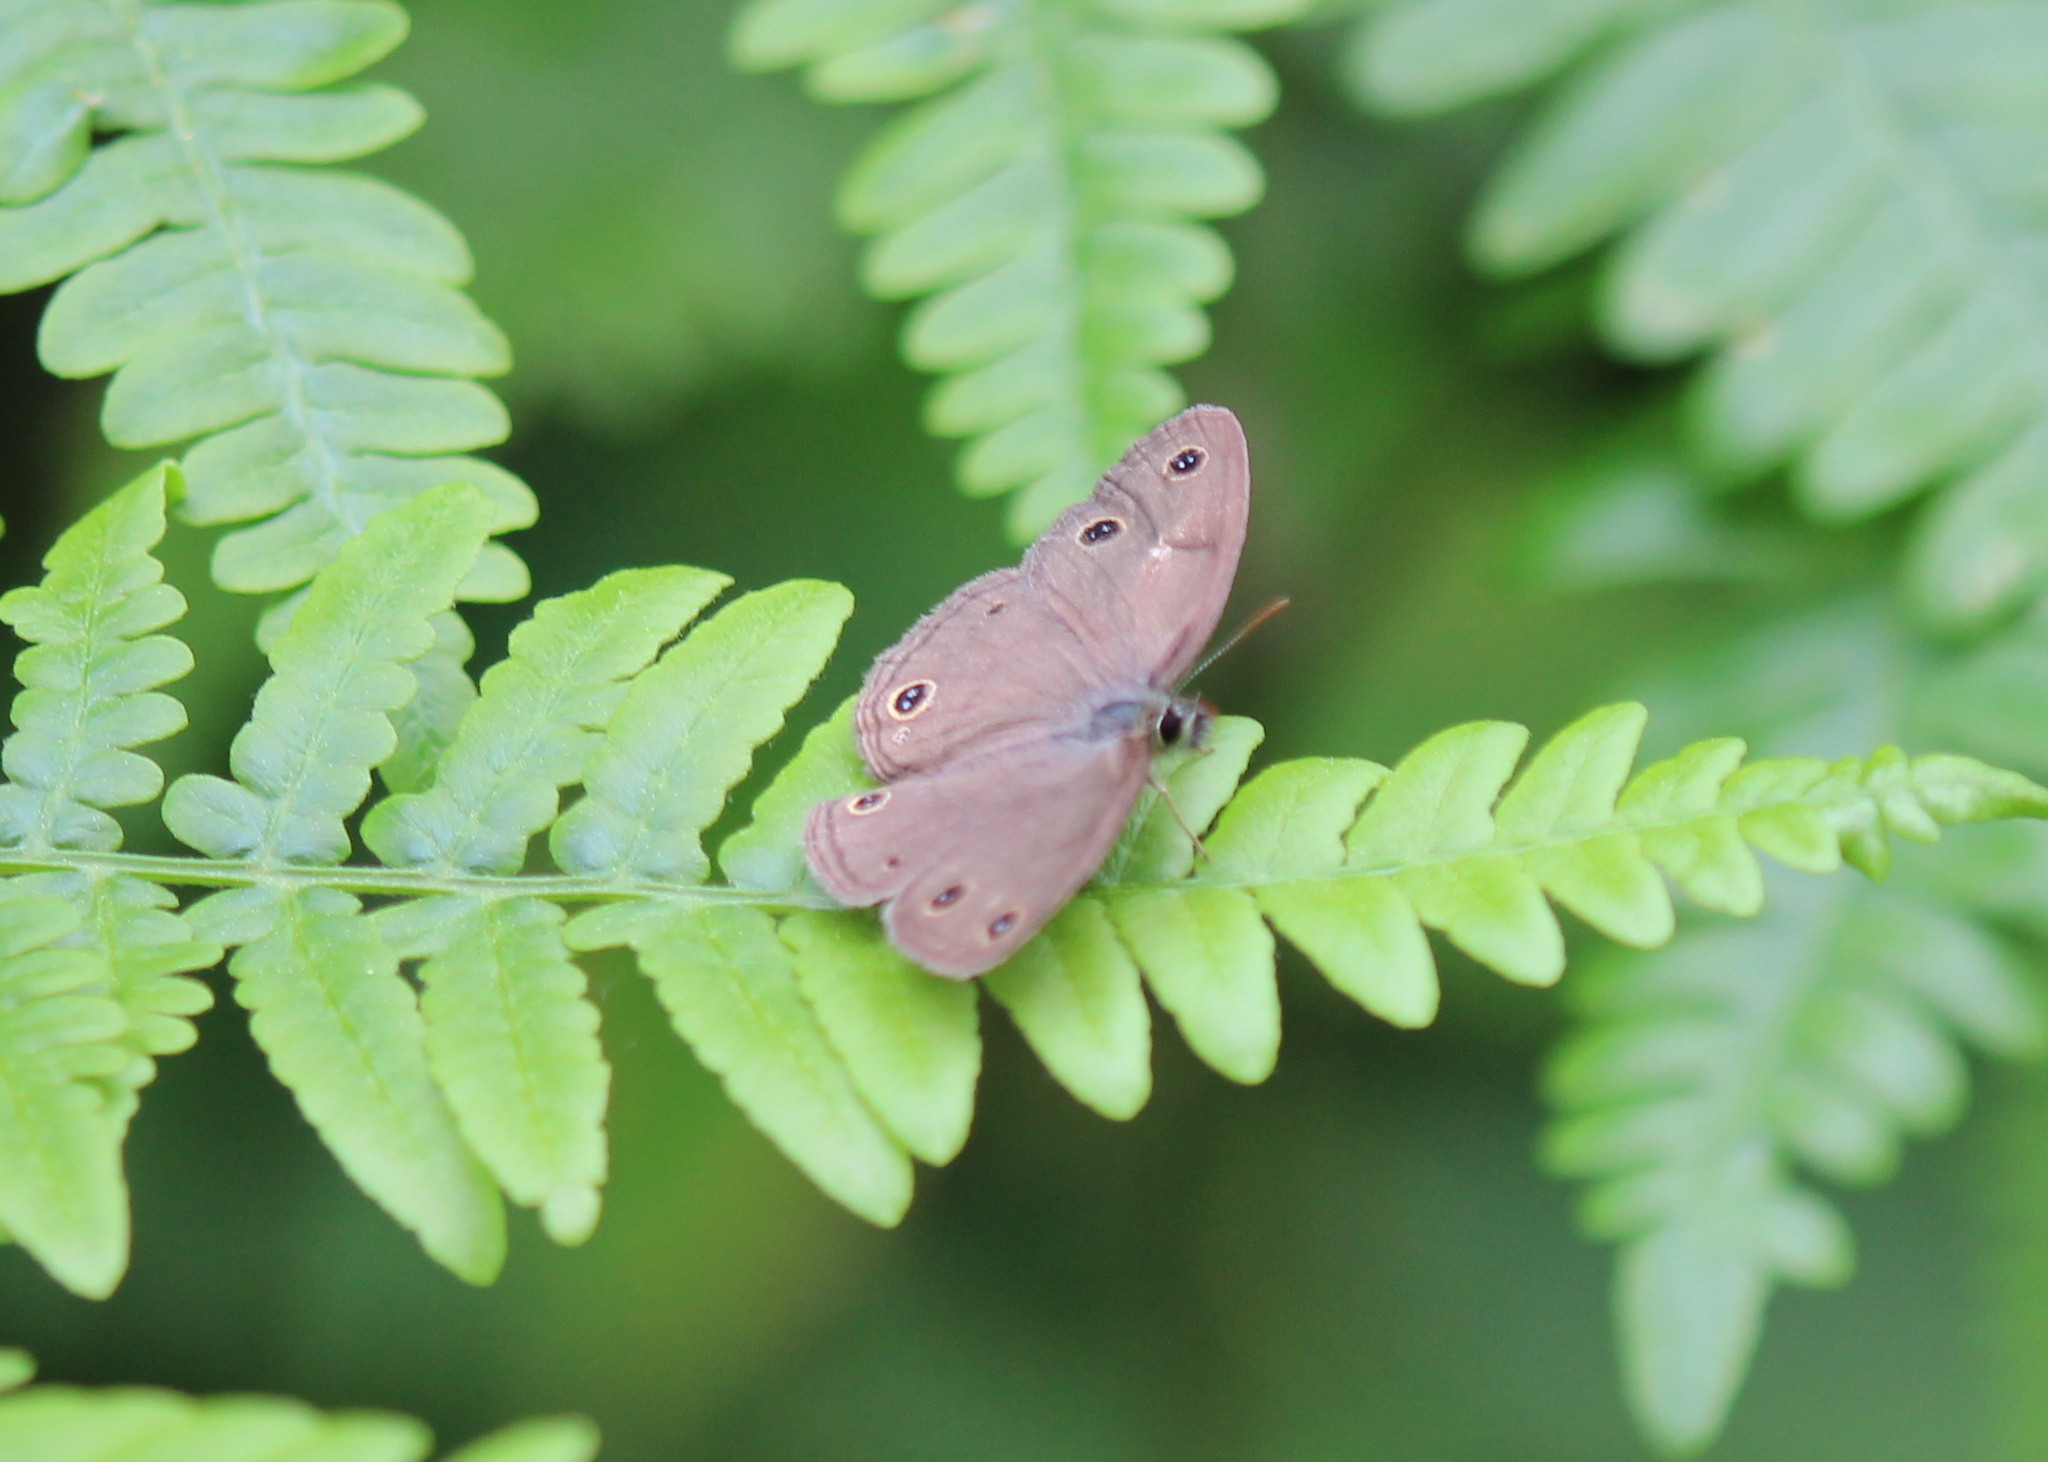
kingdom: Animalia
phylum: Arthropoda
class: Insecta
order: Lepidoptera
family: Nymphalidae
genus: Euptychia
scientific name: Euptychia cymela
